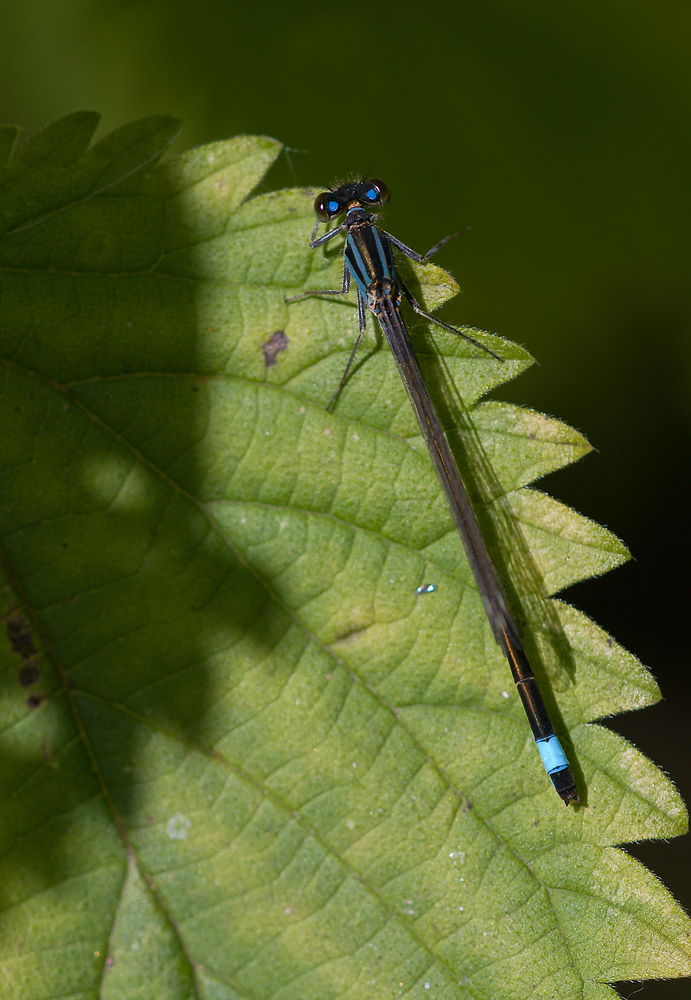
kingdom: Animalia
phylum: Arthropoda
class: Insecta
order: Odonata
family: Coenagrionidae
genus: Ischnura
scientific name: Ischnura elegans
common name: Blue-tailed damselfly
